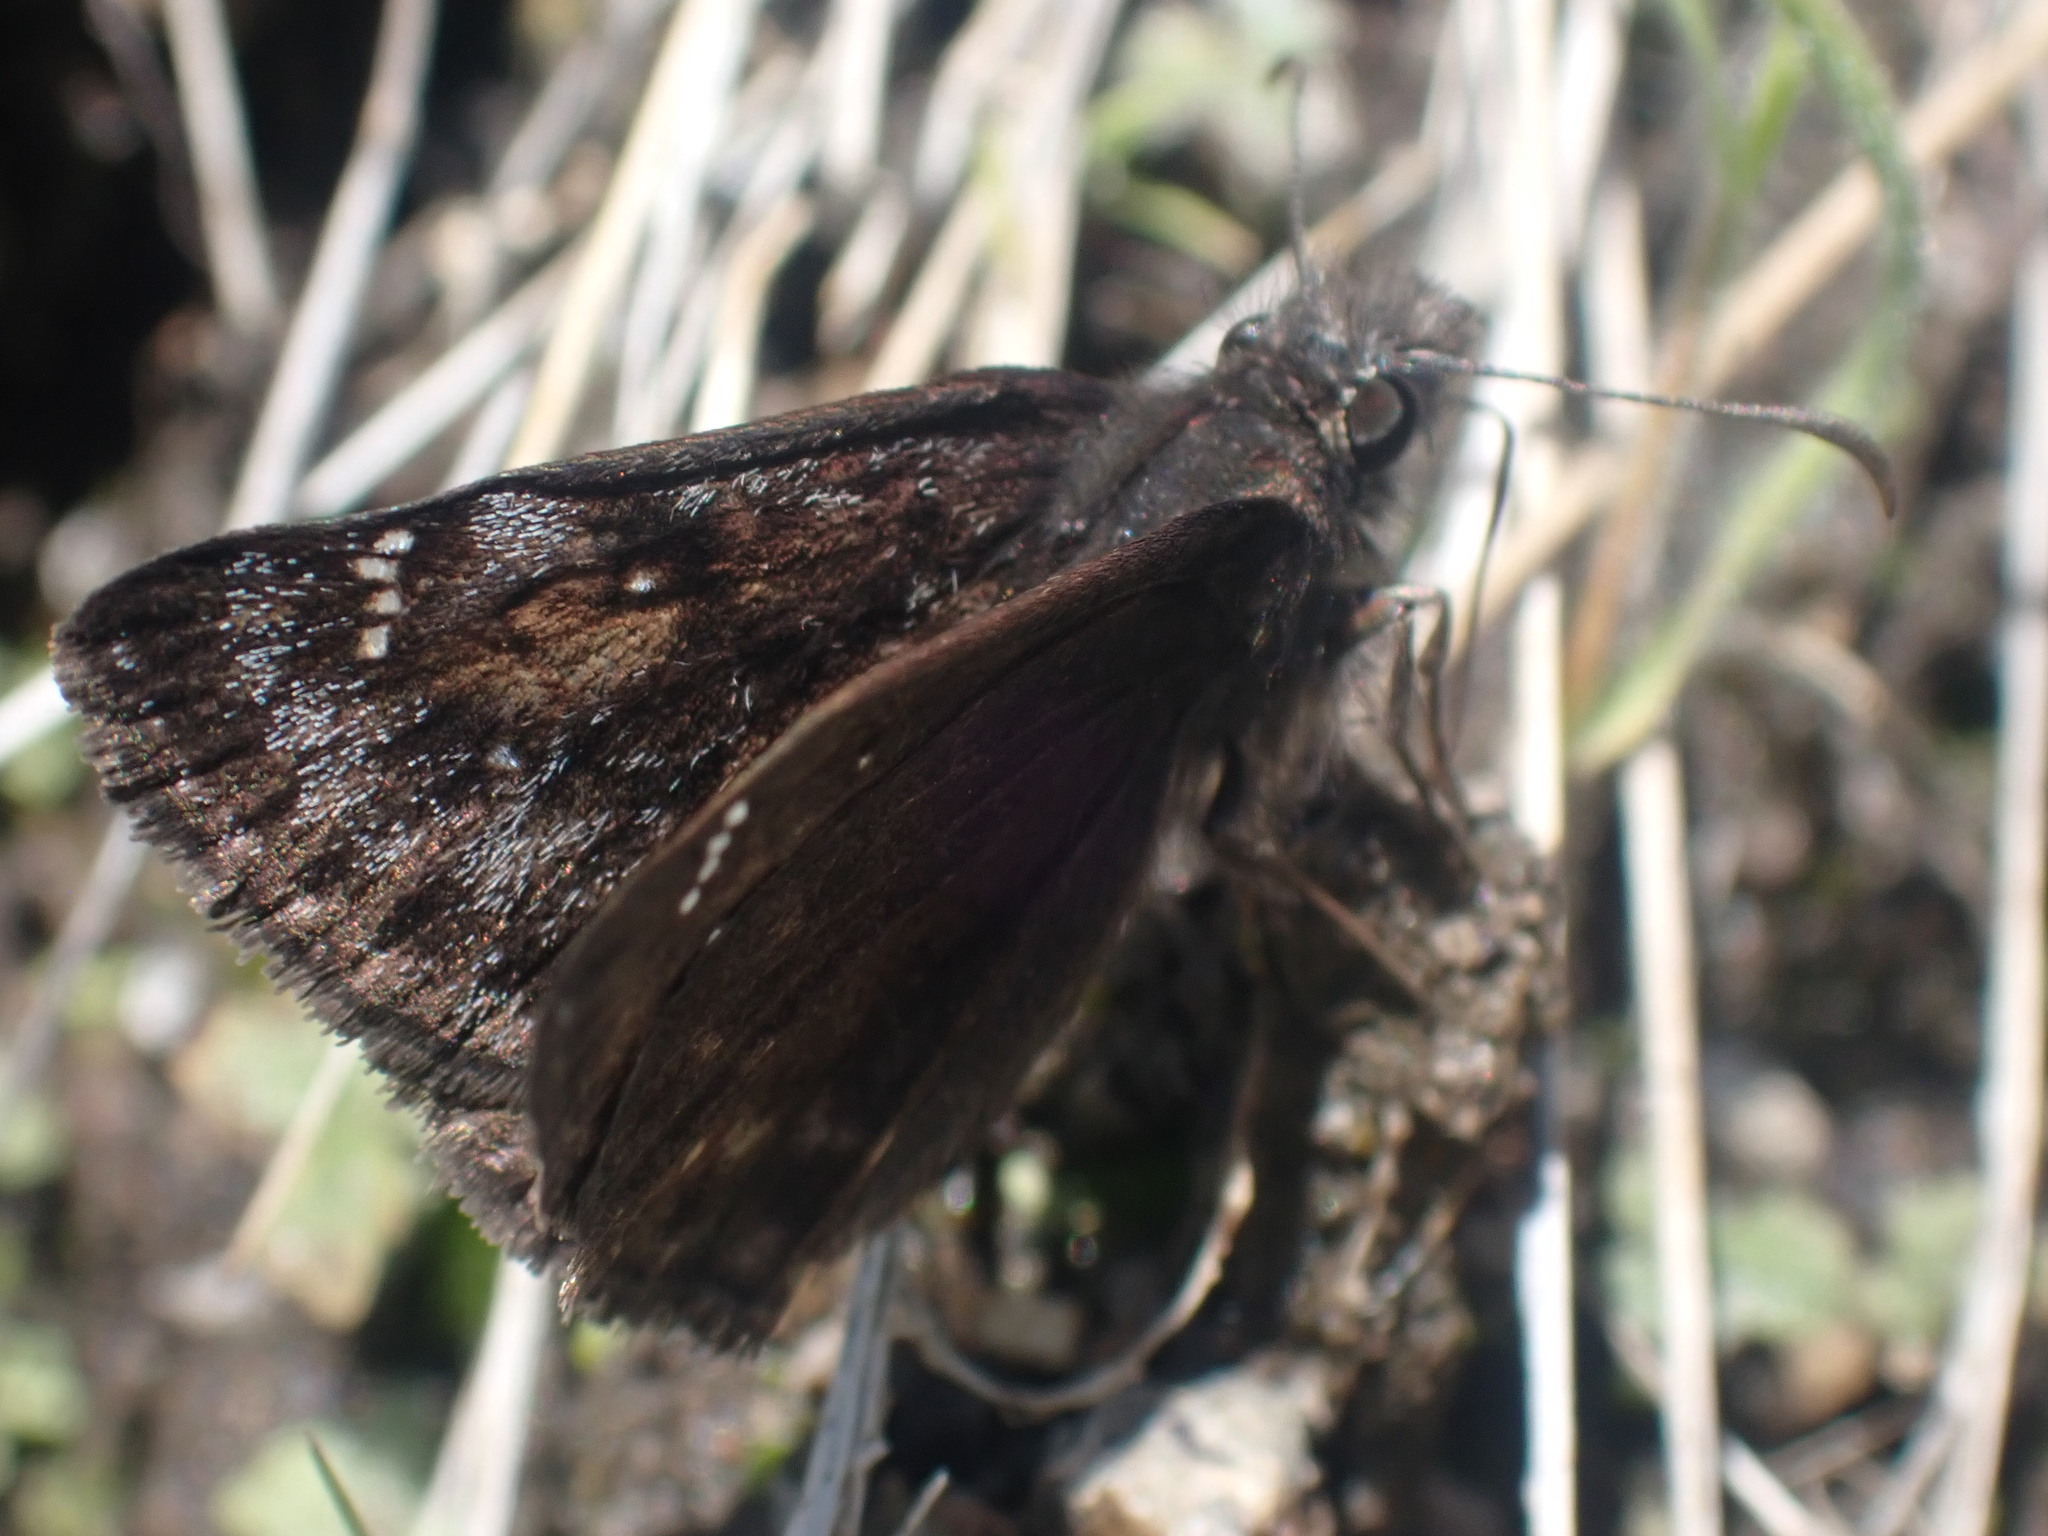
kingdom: Animalia
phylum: Arthropoda
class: Insecta
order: Lepidoptera
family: Hesperiidae
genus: Erynnis
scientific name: Erynnis pacuvius
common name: Pacuvius duskywing
